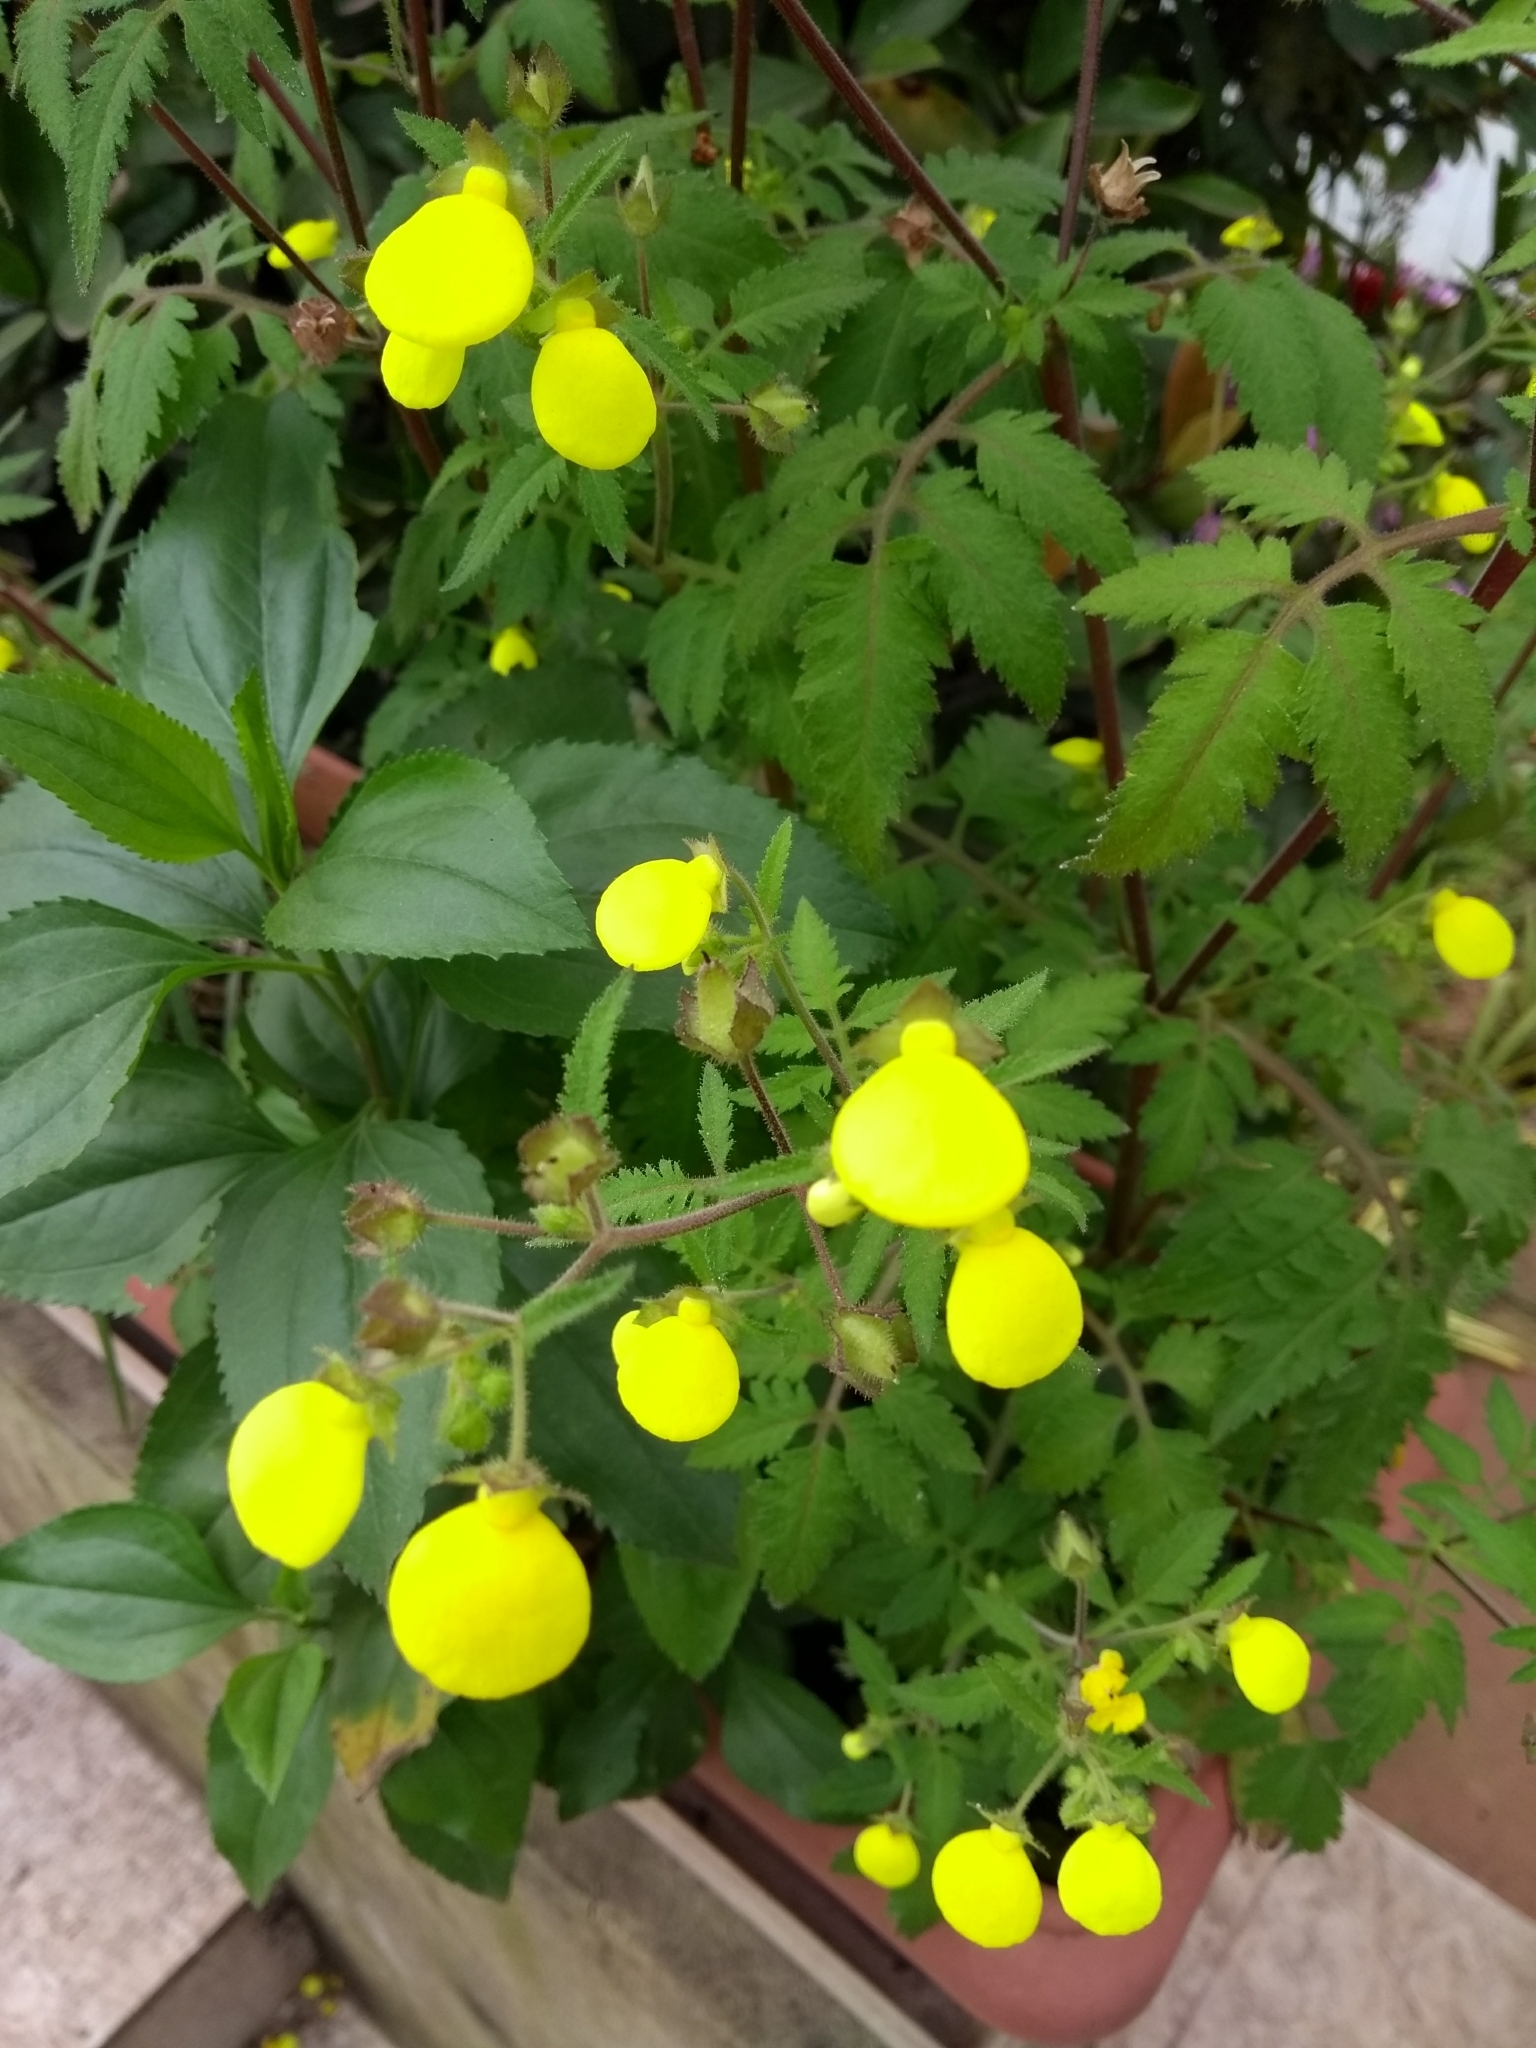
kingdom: Plantae
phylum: Tracheophyta
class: Magnoliopsida
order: Lamiales
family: Calceolariaceae
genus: Calceolaria
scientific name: Calceolaria tripartita
